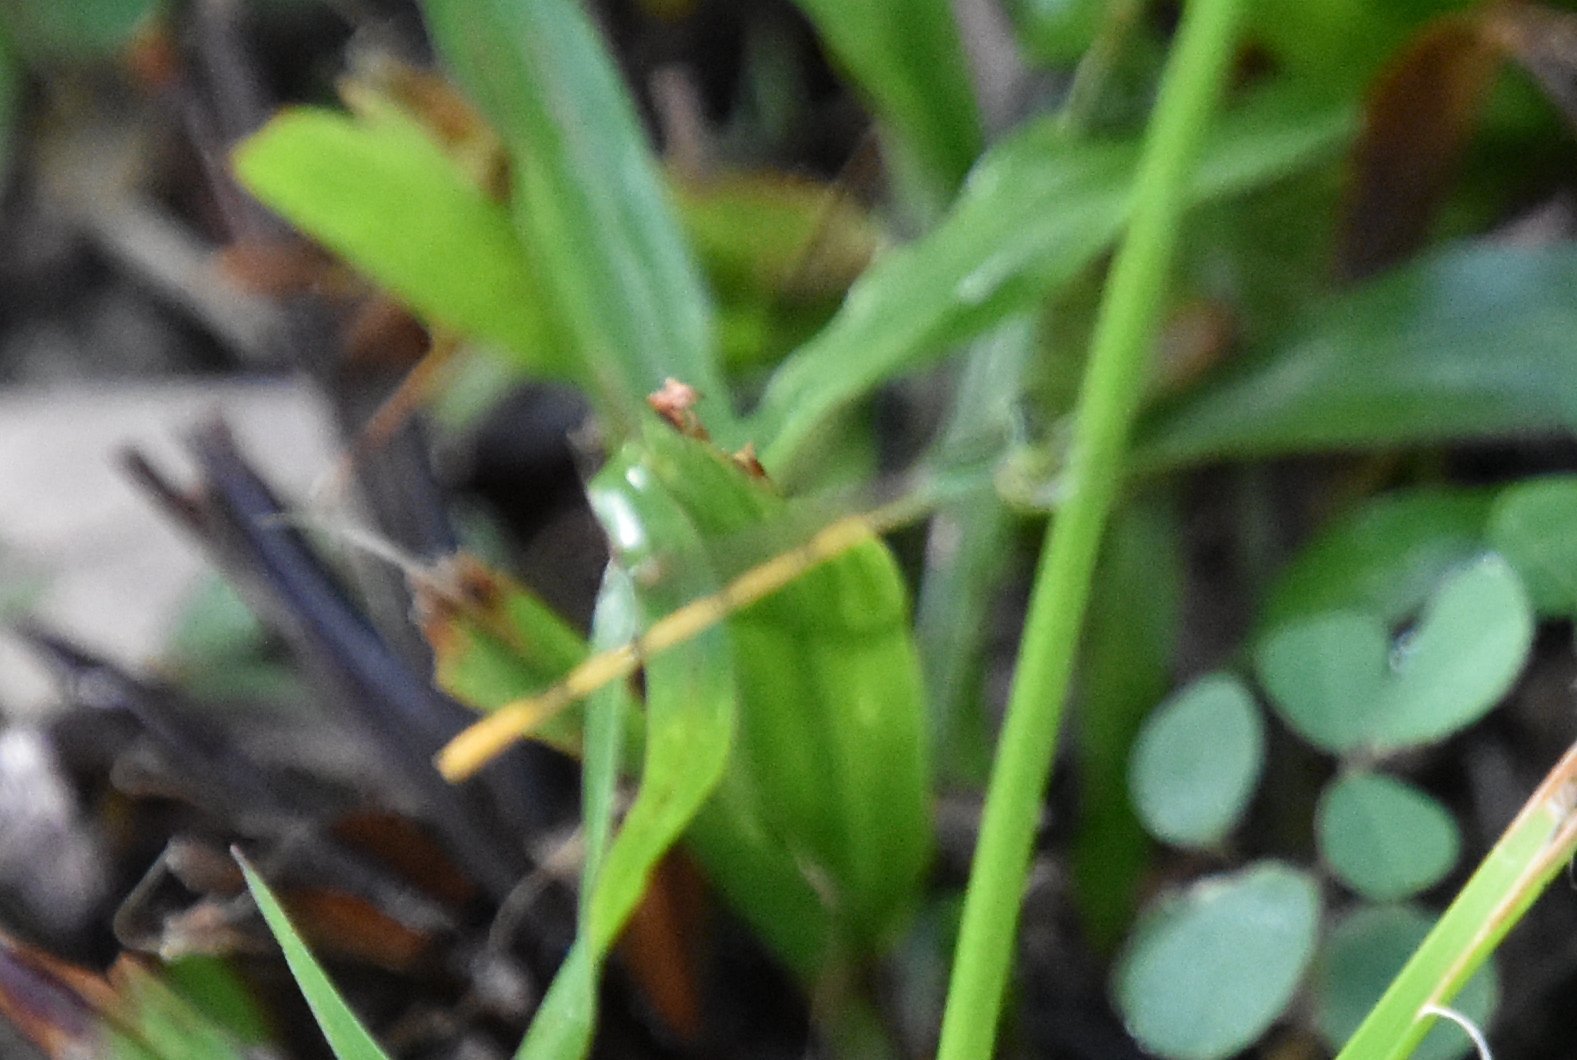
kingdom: Animalia
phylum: Arthropoda
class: Insecta
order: Odonata
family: Coenagrionidae
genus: Ischnura
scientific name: Ischnura hastata
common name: Citrine forktail
